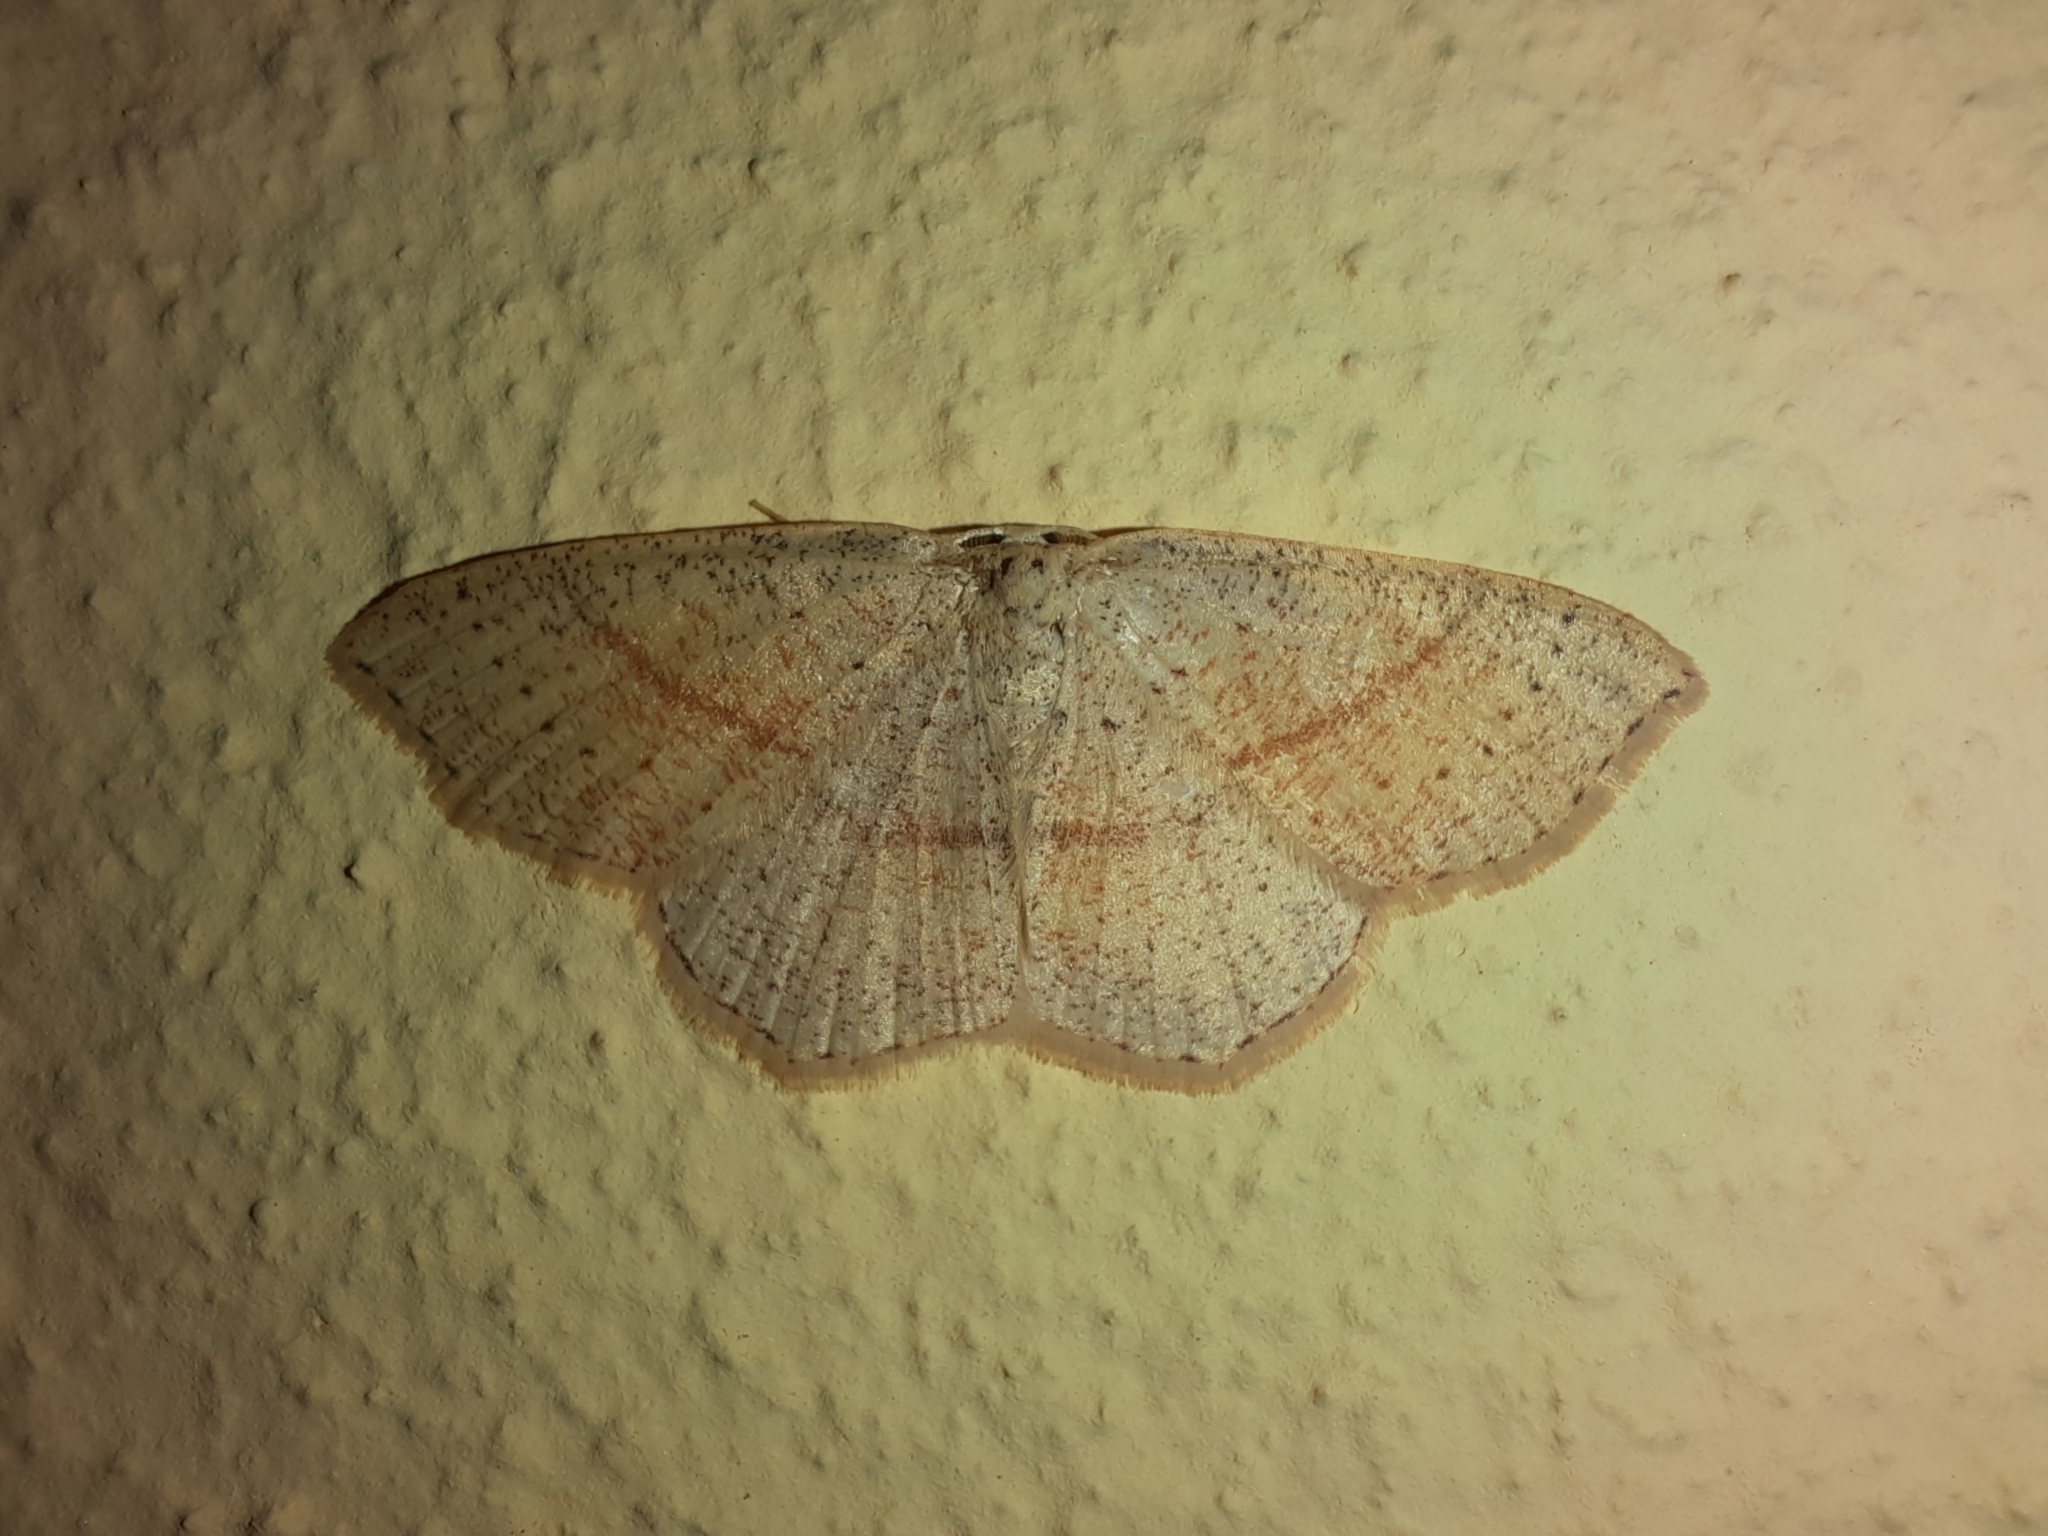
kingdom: Animalia
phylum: Arthropoda
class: Insecta
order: Lepidoptera
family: Geometridae
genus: Cyclophora
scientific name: Cyclophora punctaria
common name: Maiden's blush
